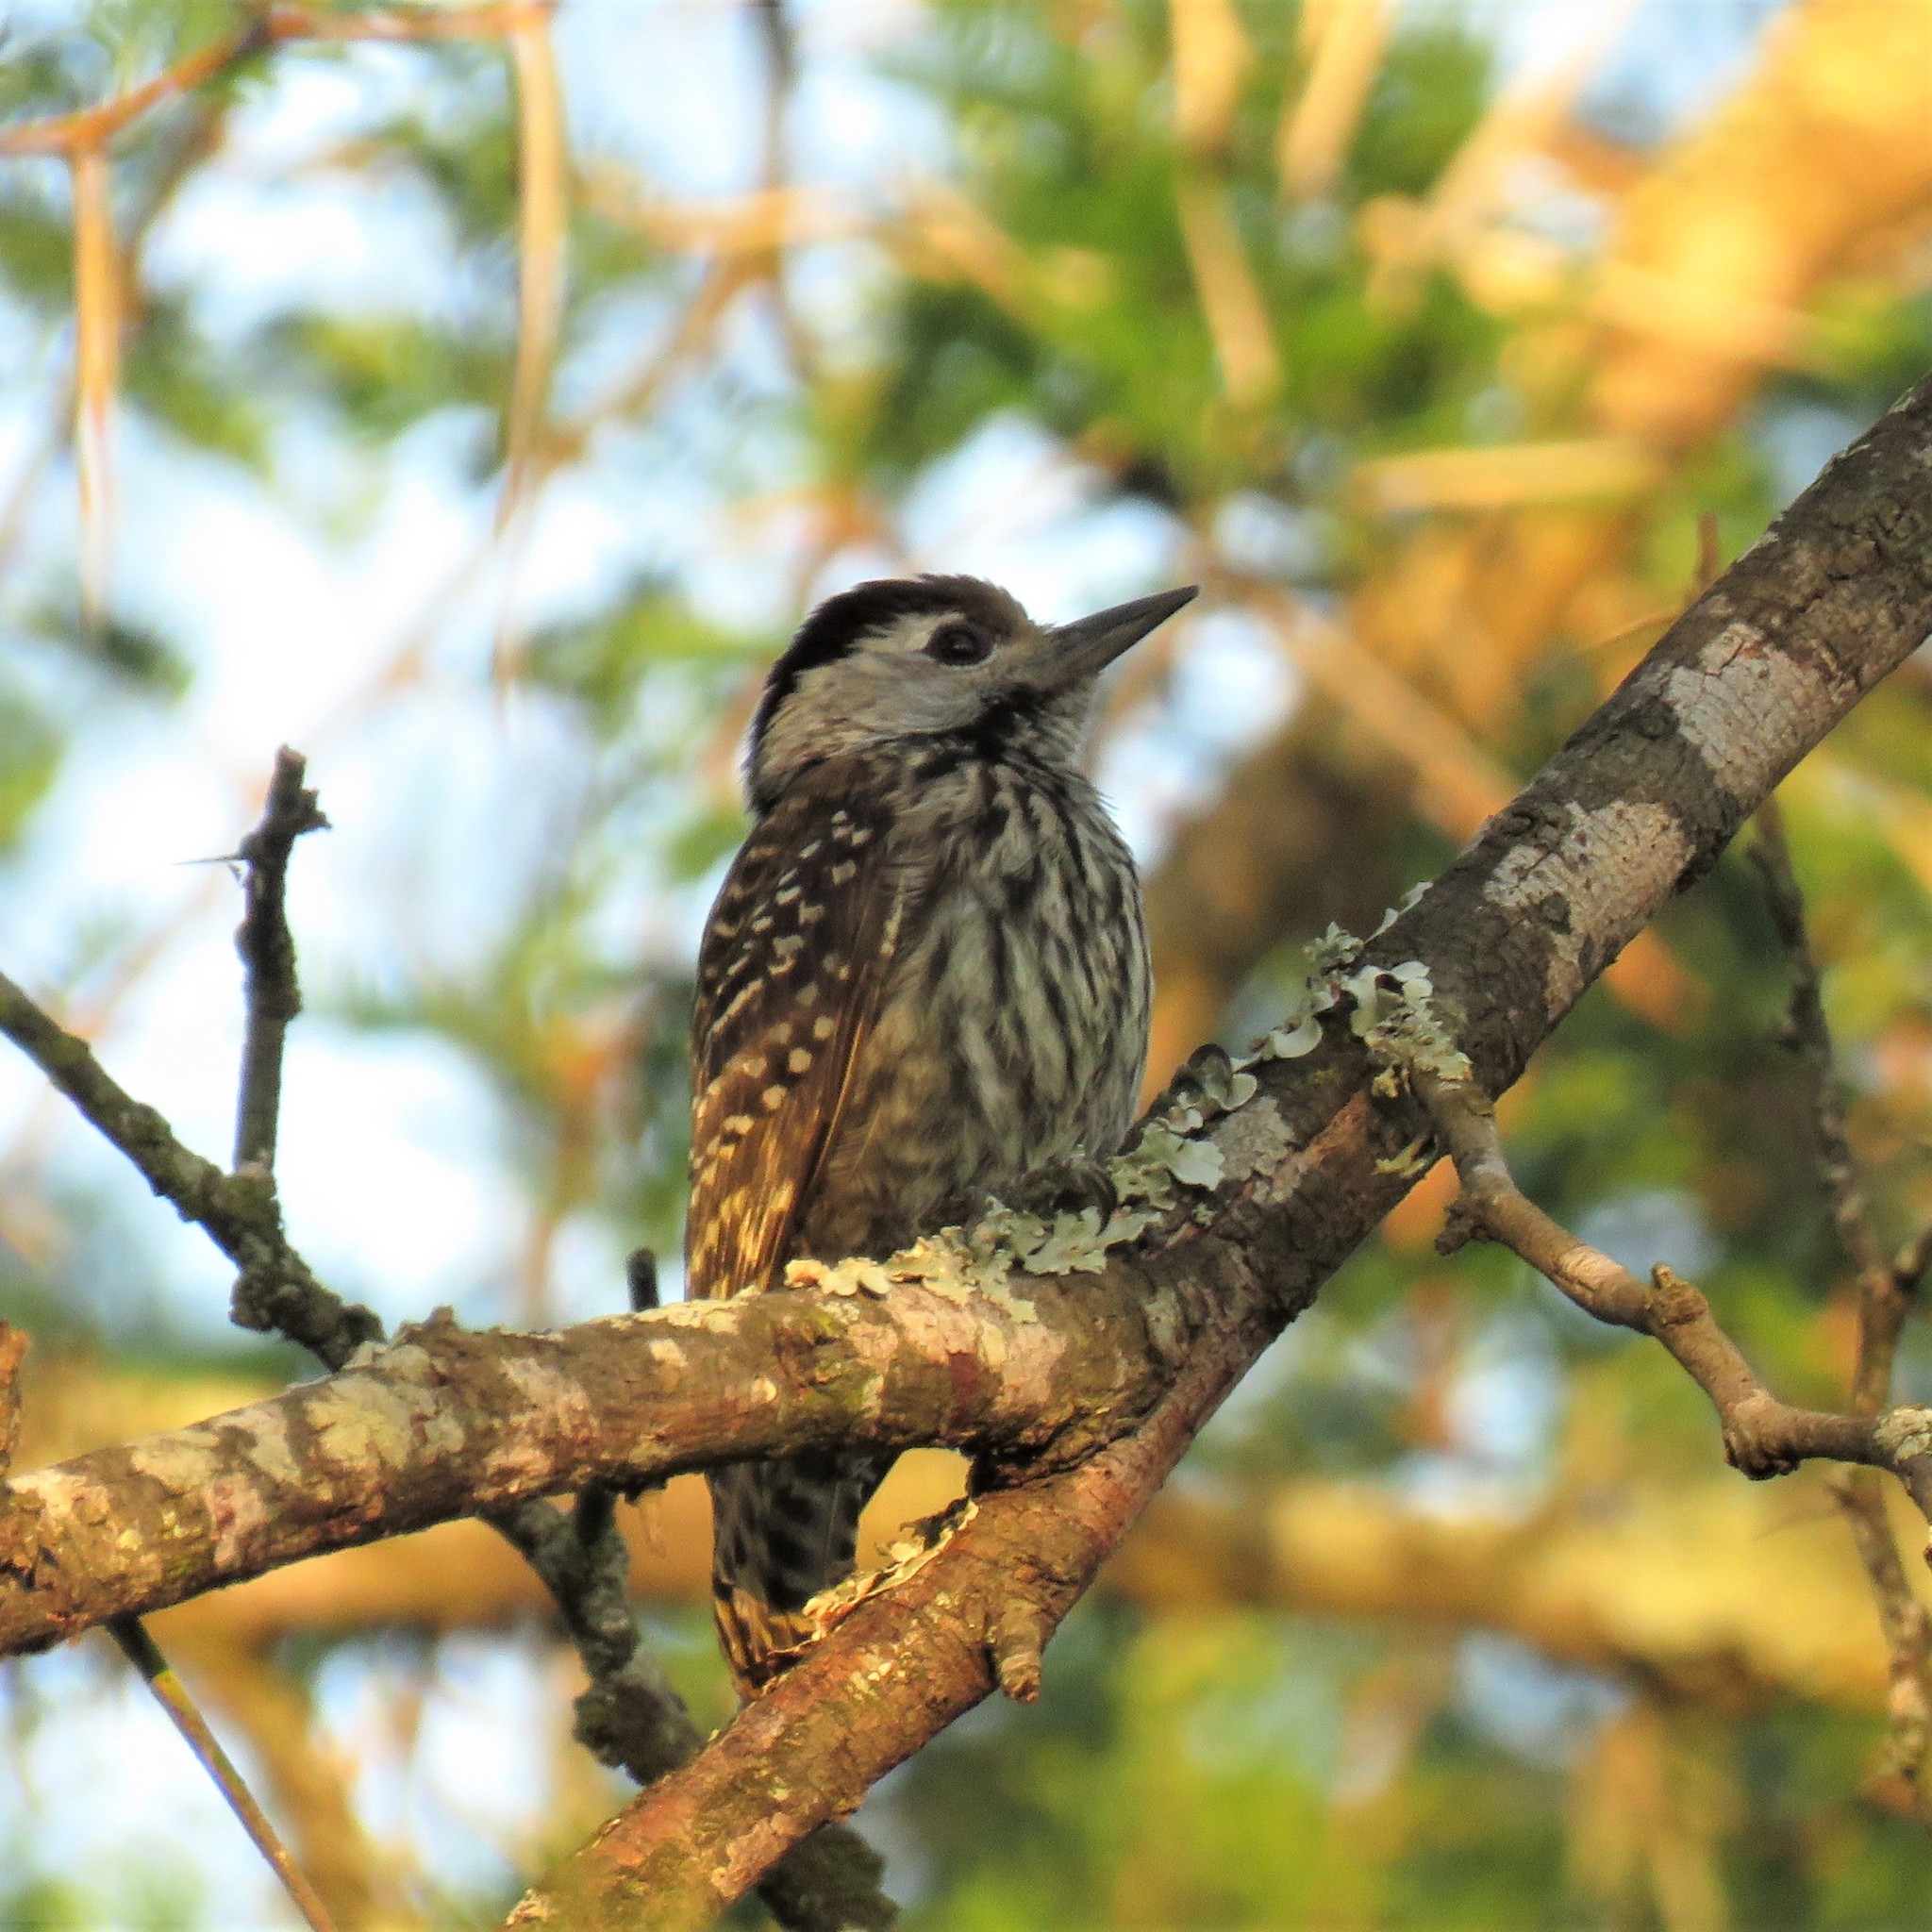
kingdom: Animalia
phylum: Chordata
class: Aves
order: Piciformes
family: Picidae
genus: Dendropicos
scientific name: Dendropicos fuscescens
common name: Cardinal woodpecker
